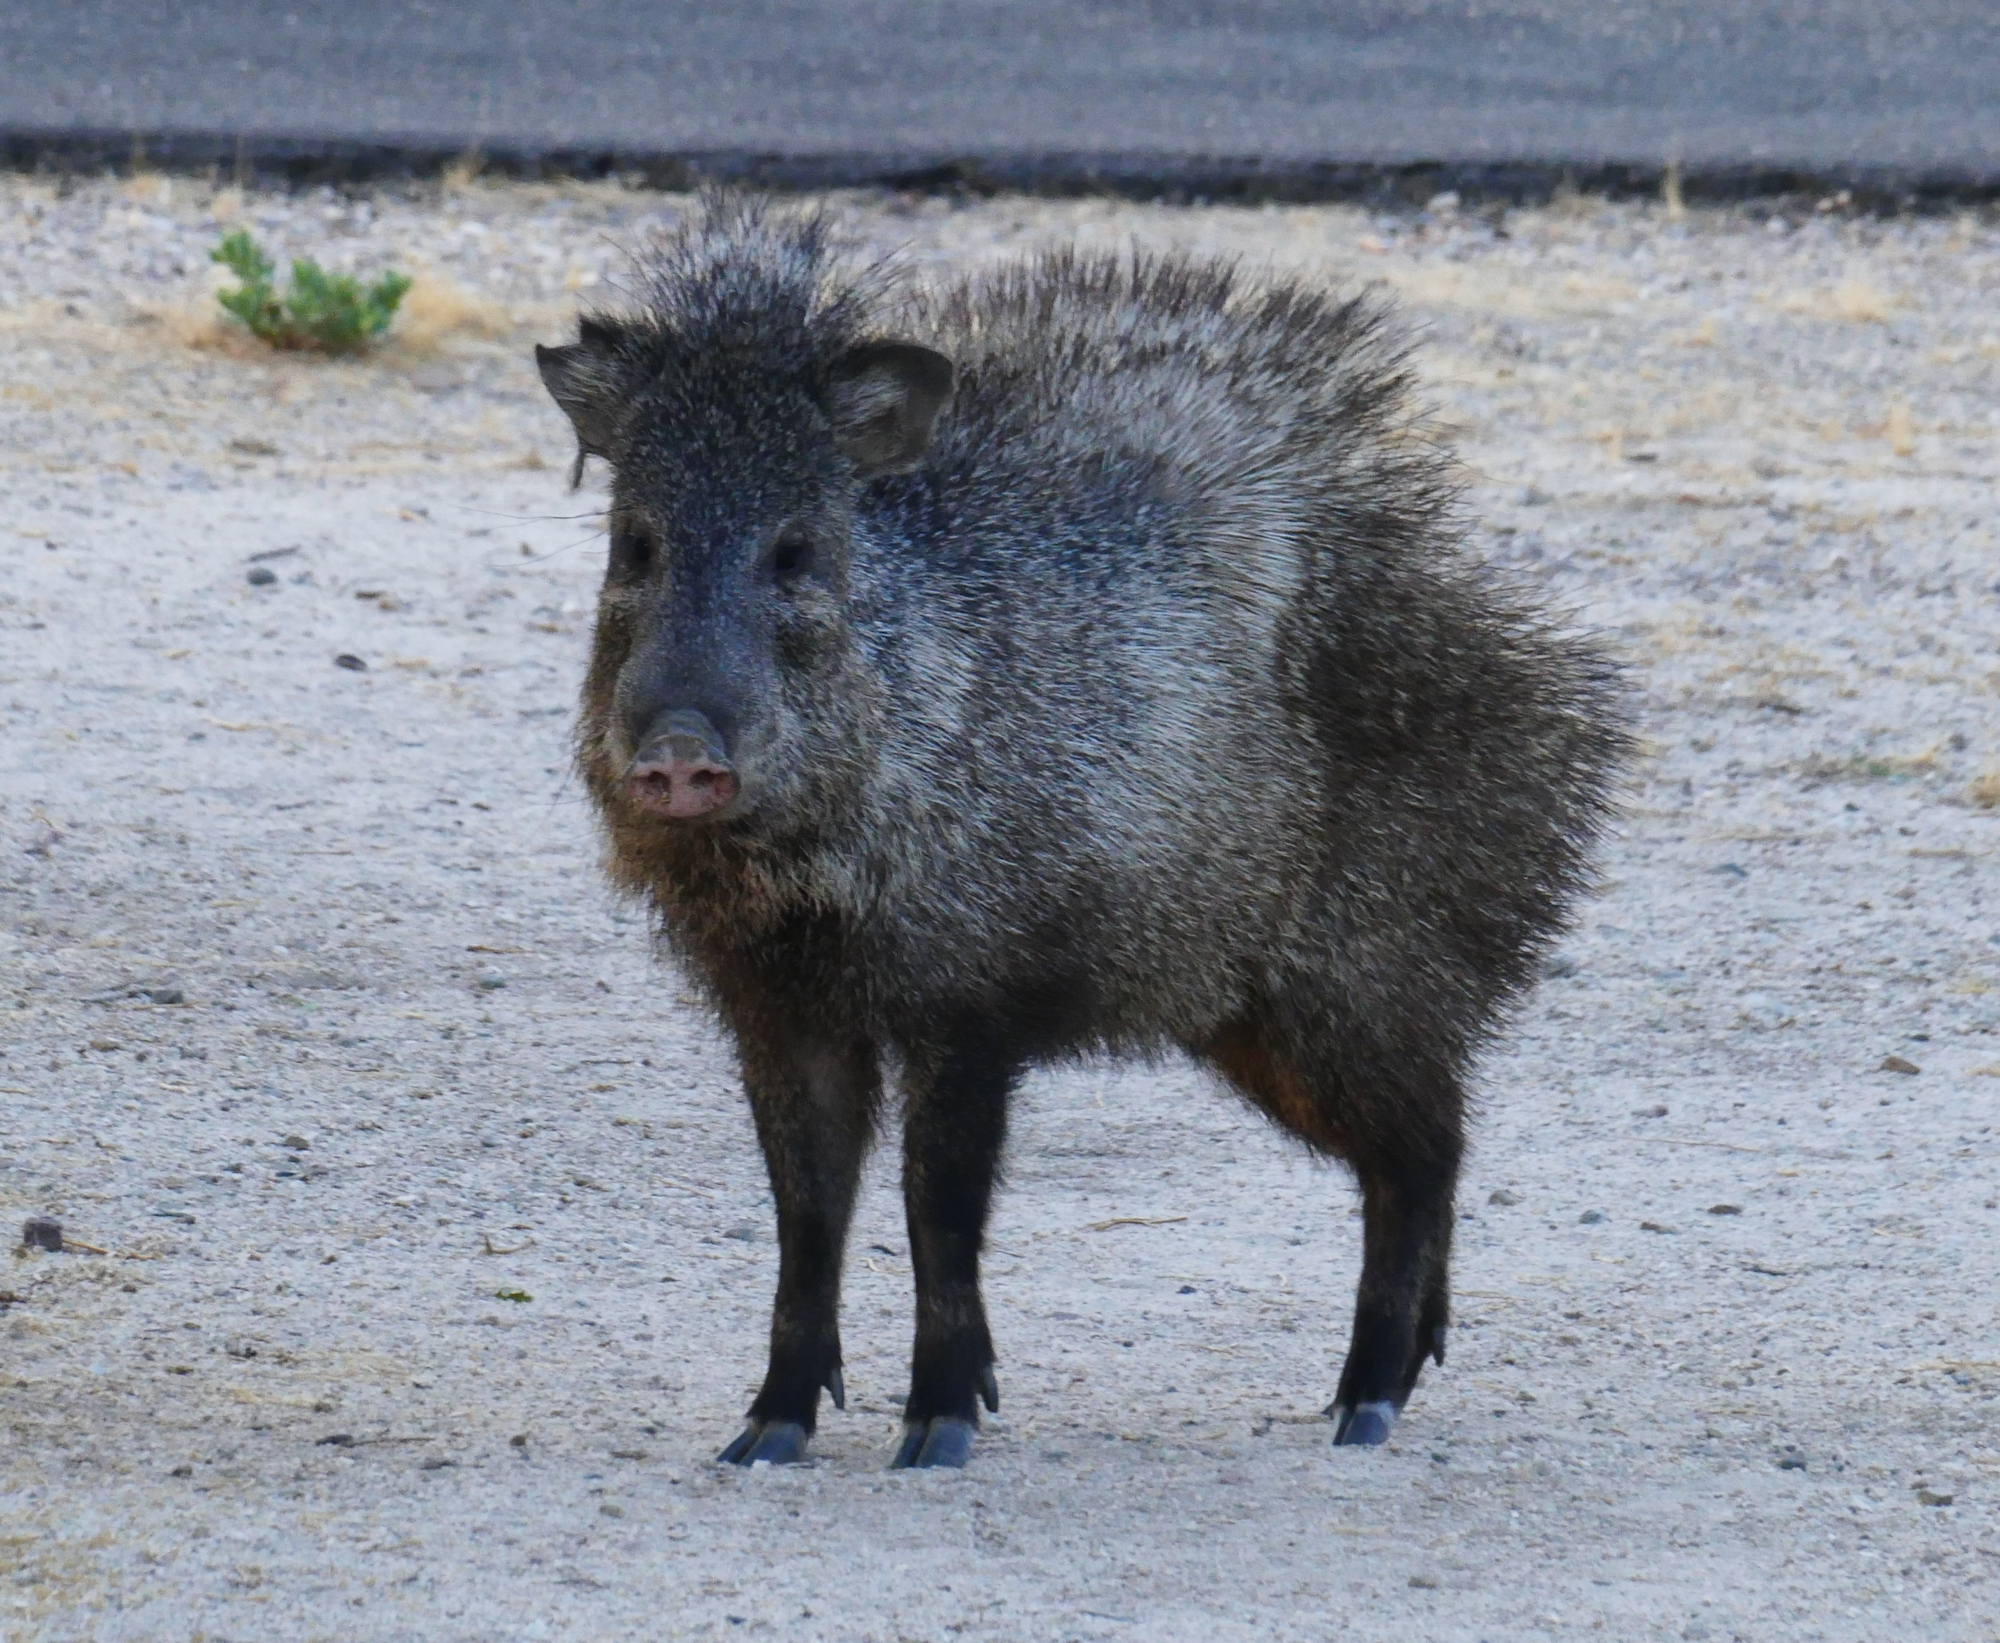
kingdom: Animalia
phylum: Chordata
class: Mammalia
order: Artiodactyla
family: Tayassuidae
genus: Pecari
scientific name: Pecari tajacu
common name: Collared peccary
